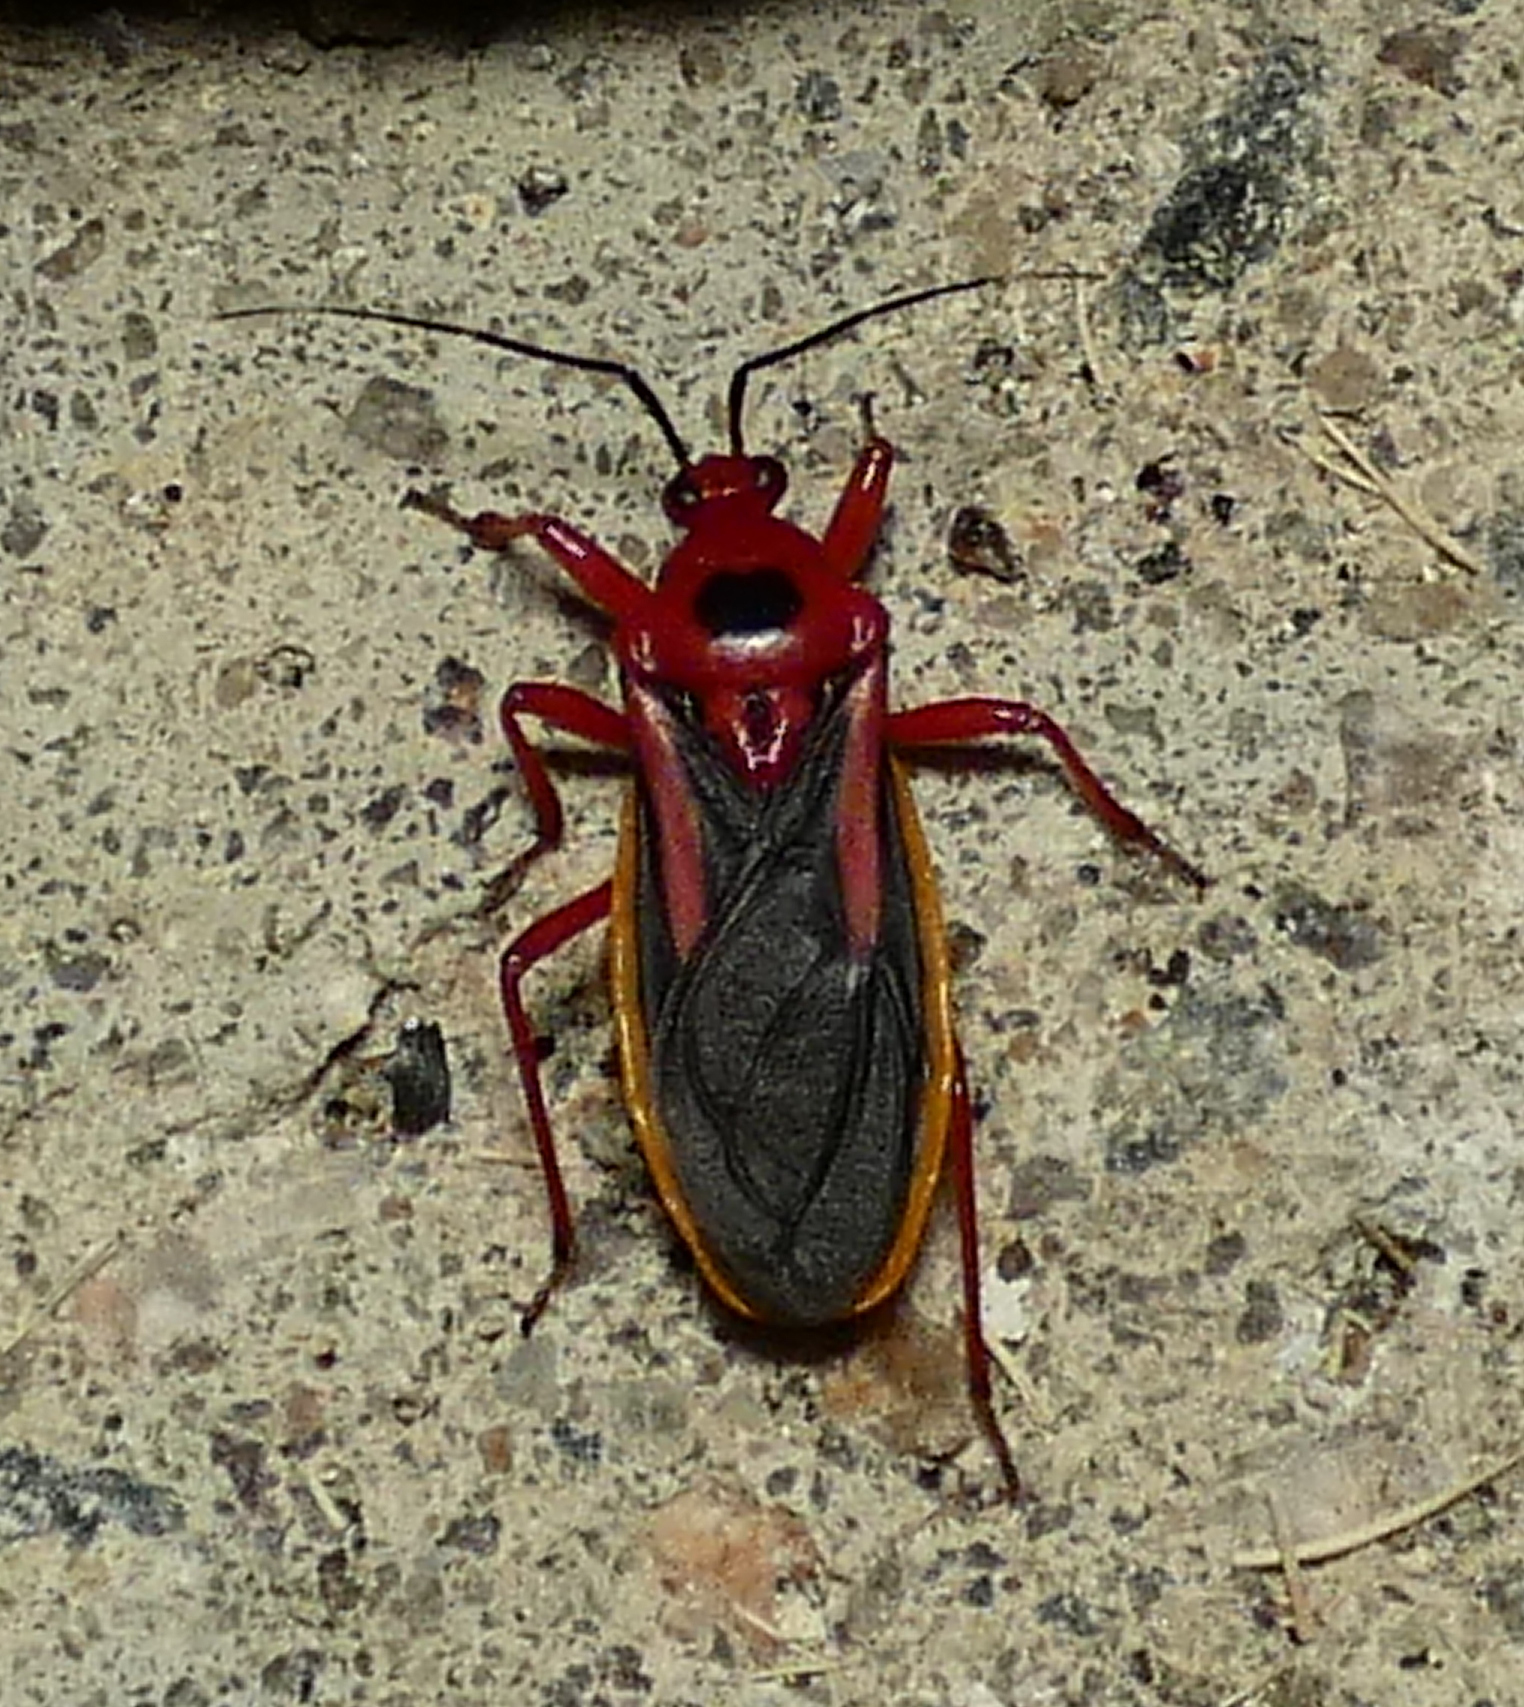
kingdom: Animalia
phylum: Arthropoda
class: Insecta
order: Hemiptera
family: Reduviidae
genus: Brontostoma
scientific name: Brontostoma discus
